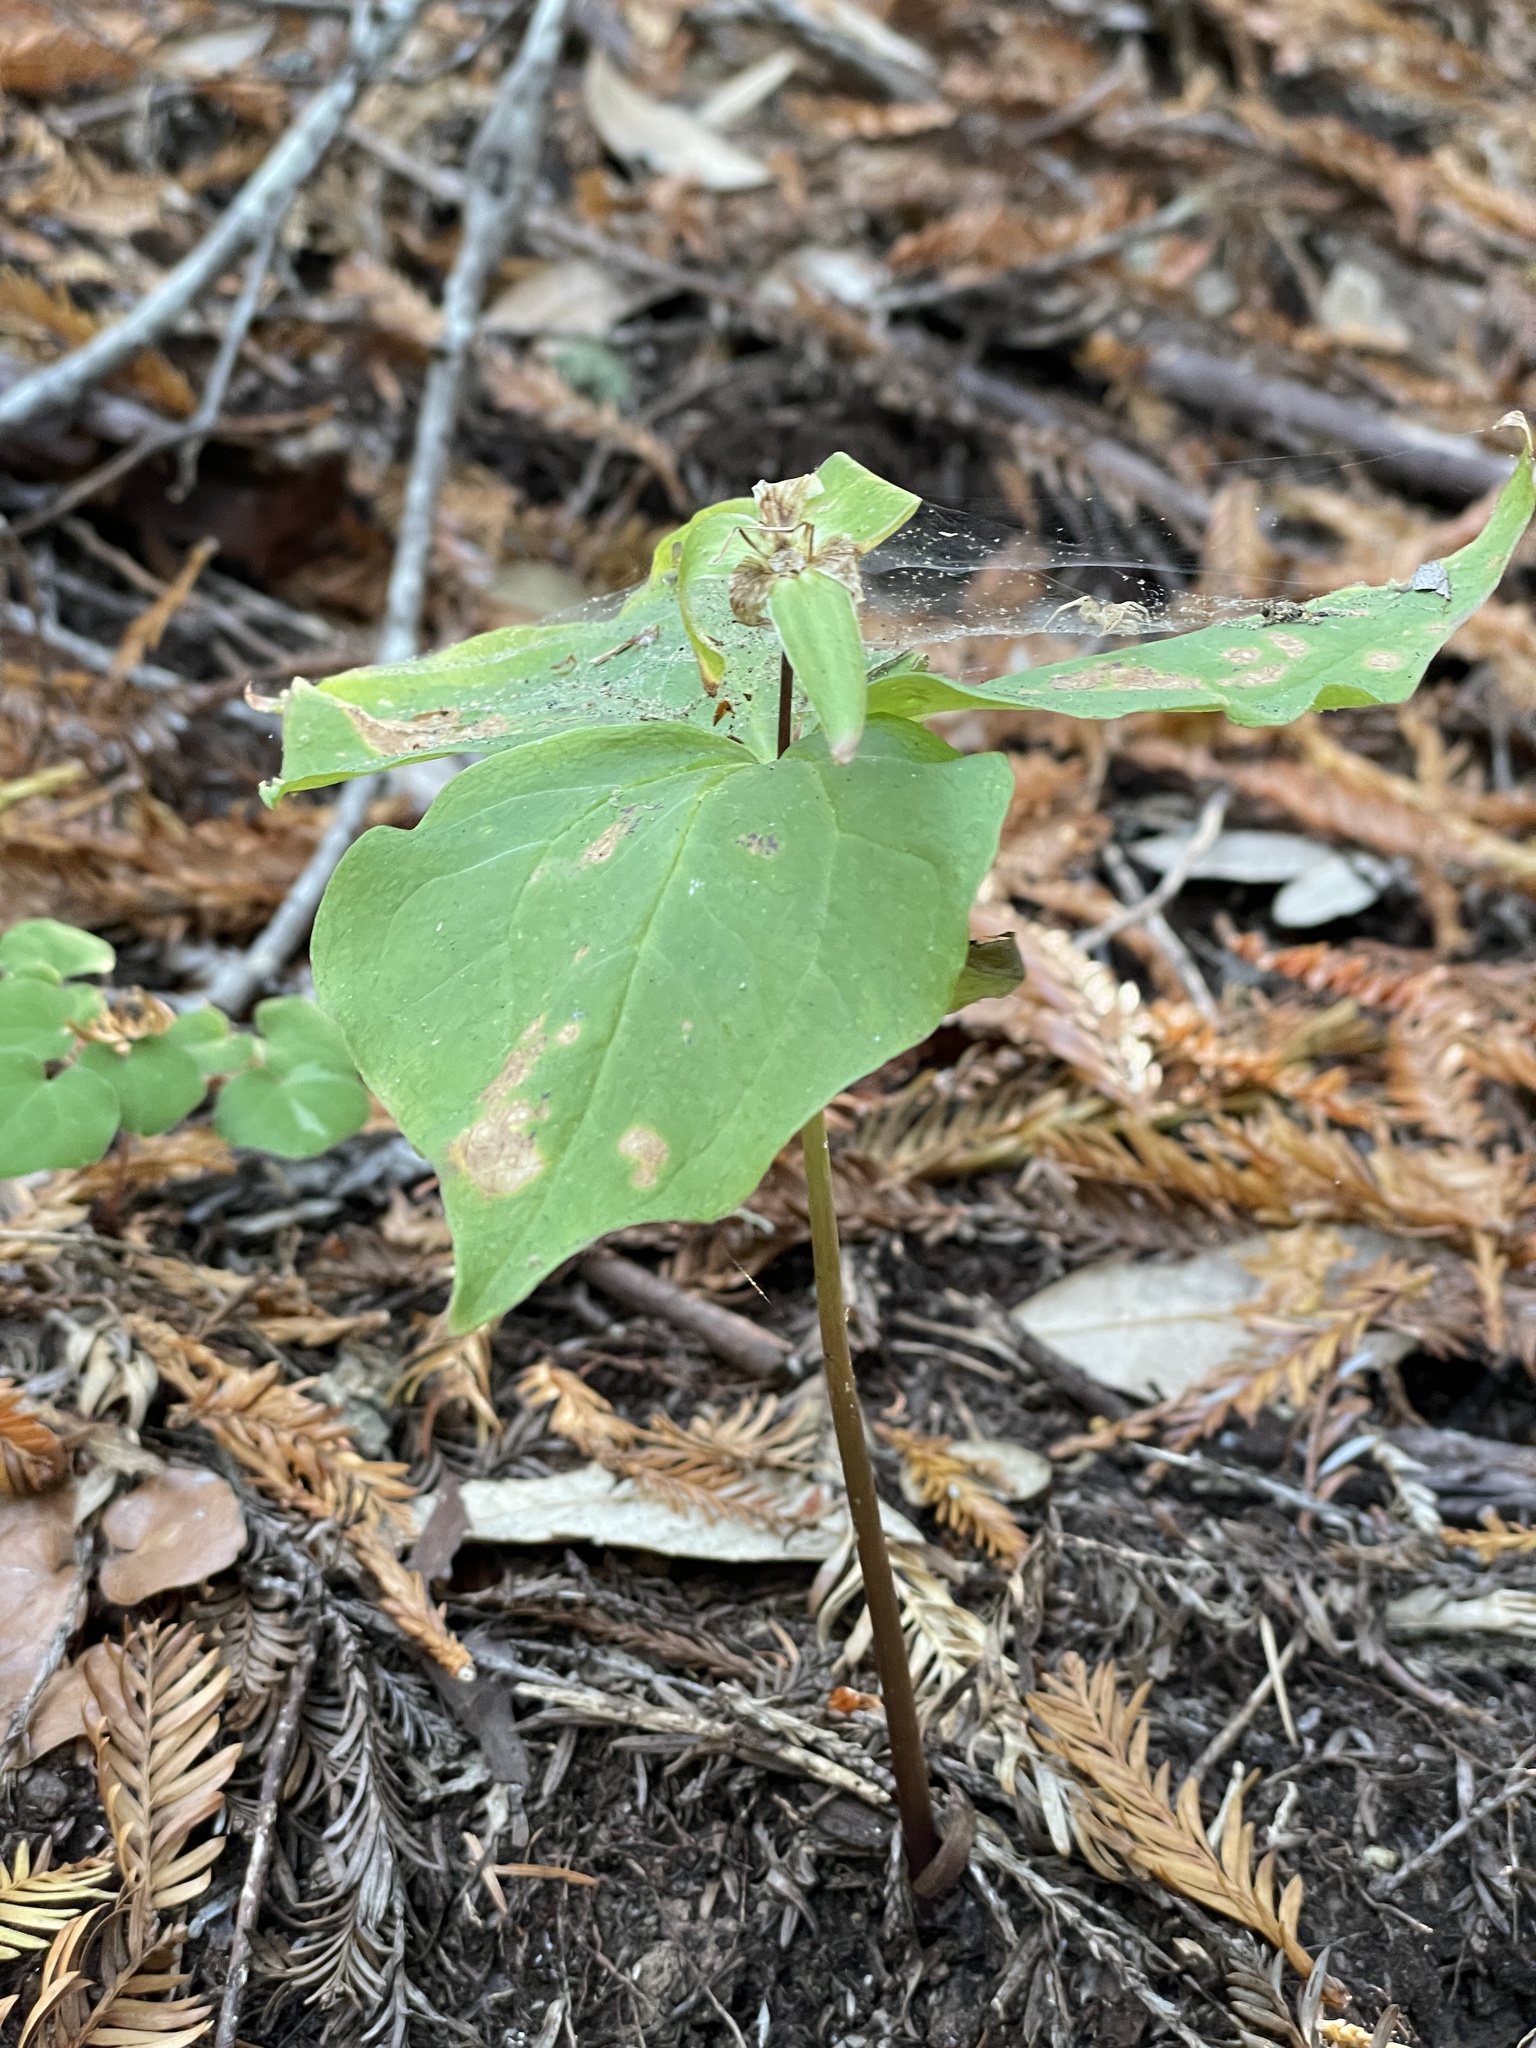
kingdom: Plantae
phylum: Tracheophyta
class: Liliopsida
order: Liliales
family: Melanthiaceae
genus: Trillium
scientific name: Trillium ovatum
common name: Pacific trillium
